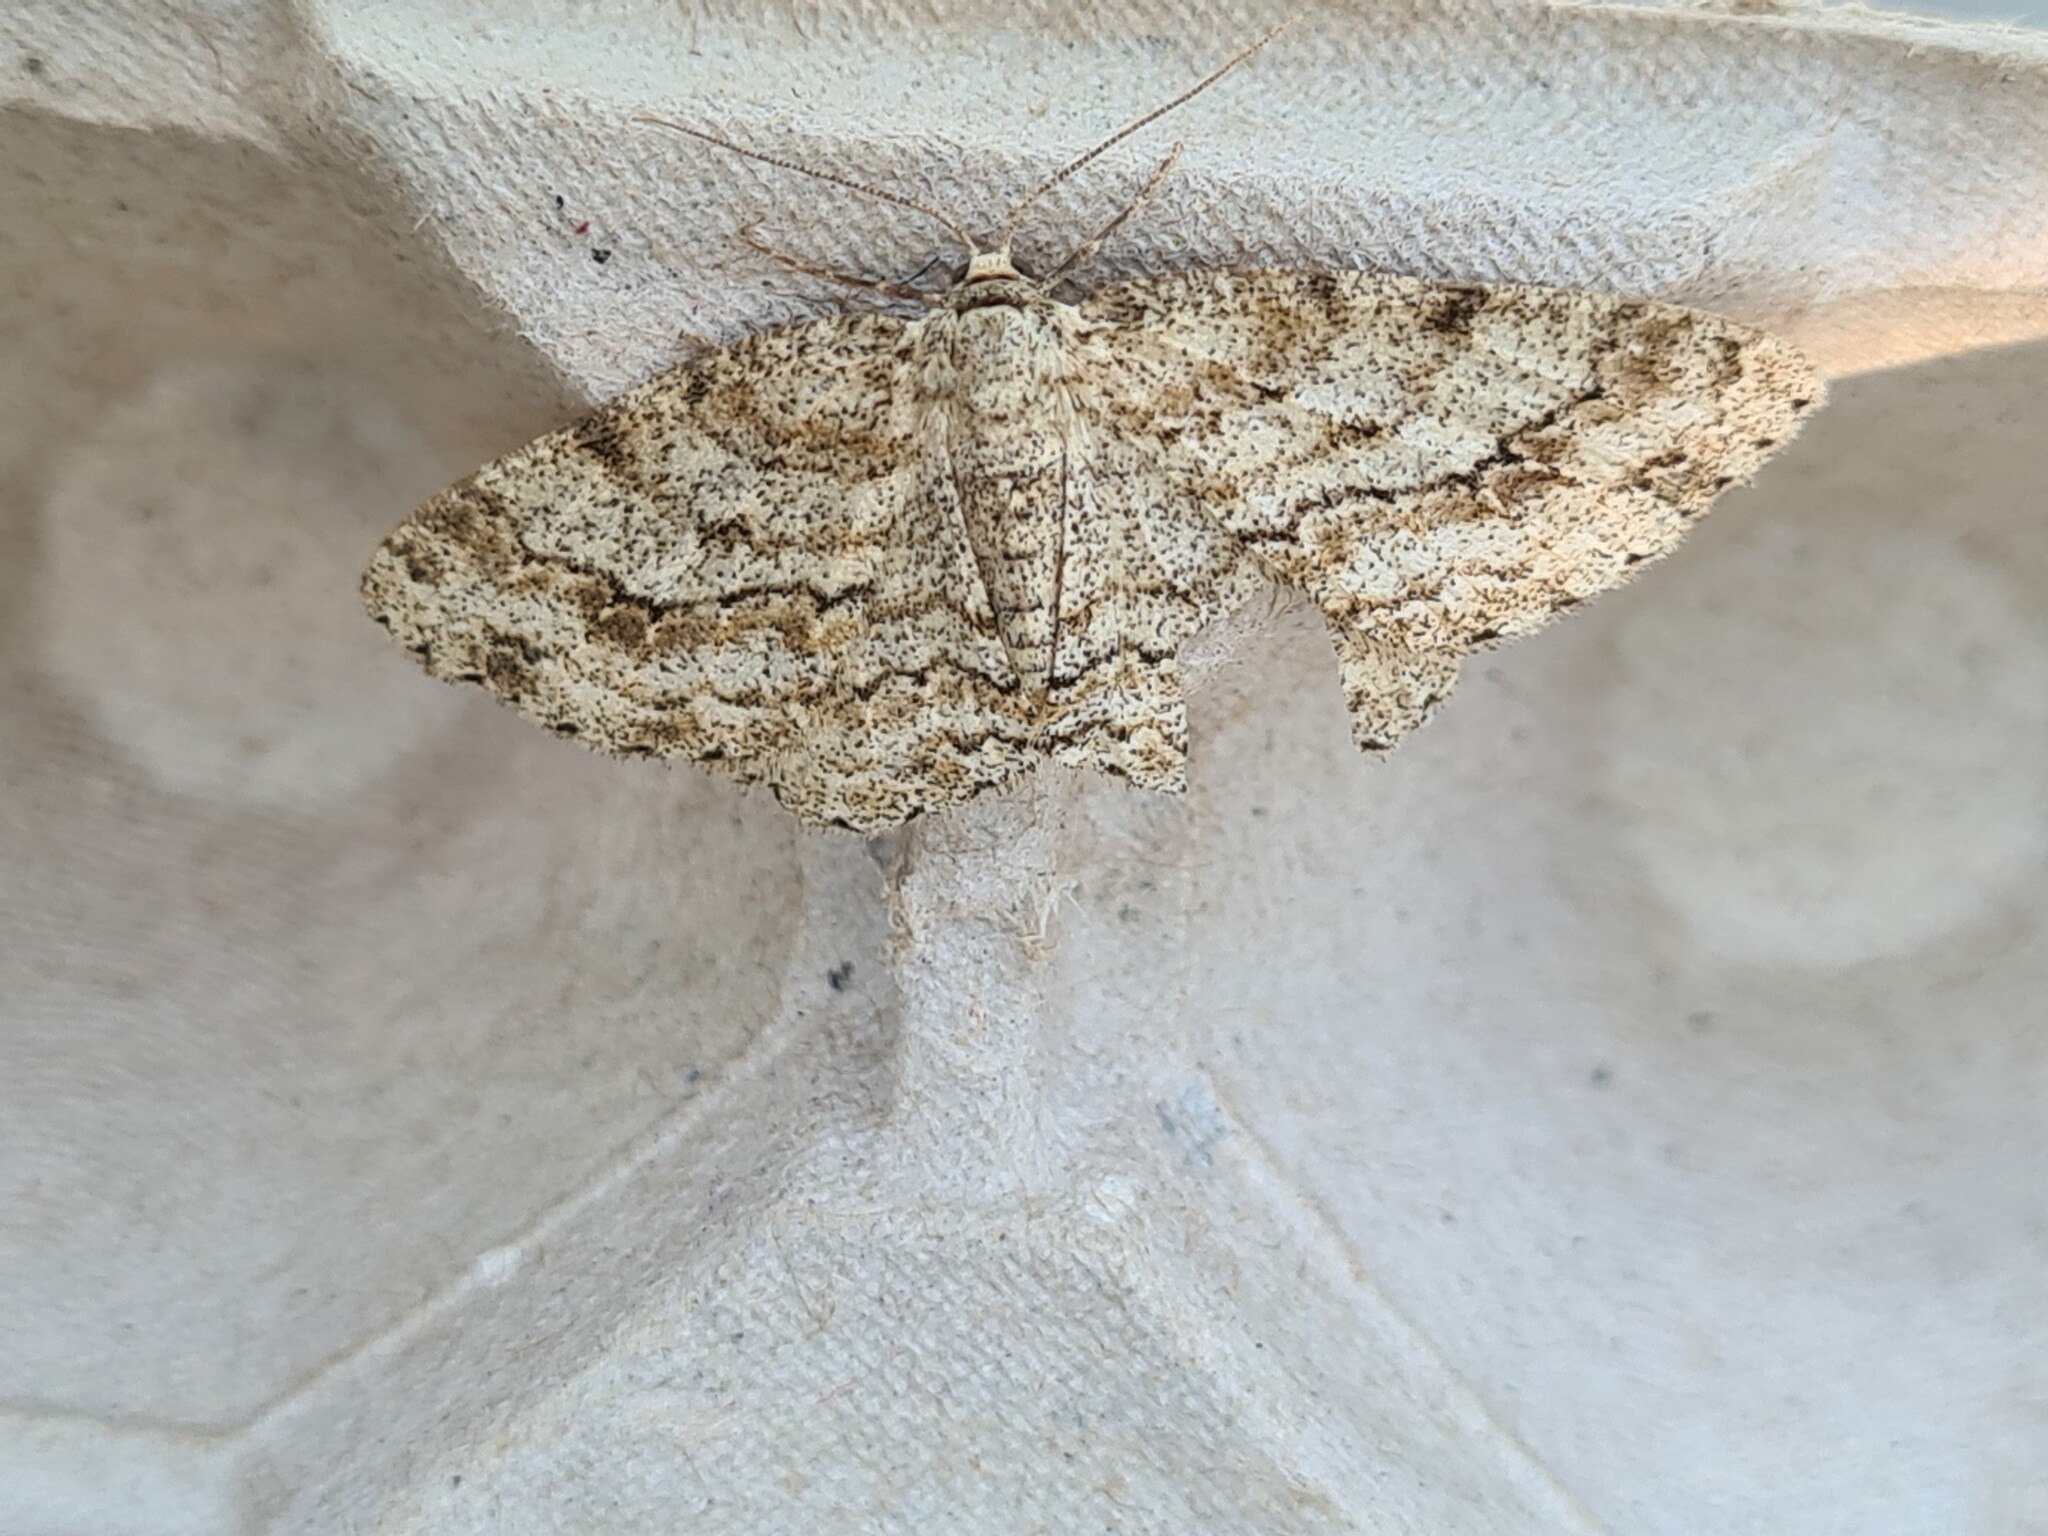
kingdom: Animalia
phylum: Arthropoda
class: Insecta
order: Lepidoptera
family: Geometridae
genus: Ectropis
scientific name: Ectropis crepuscularia
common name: Engrailed
